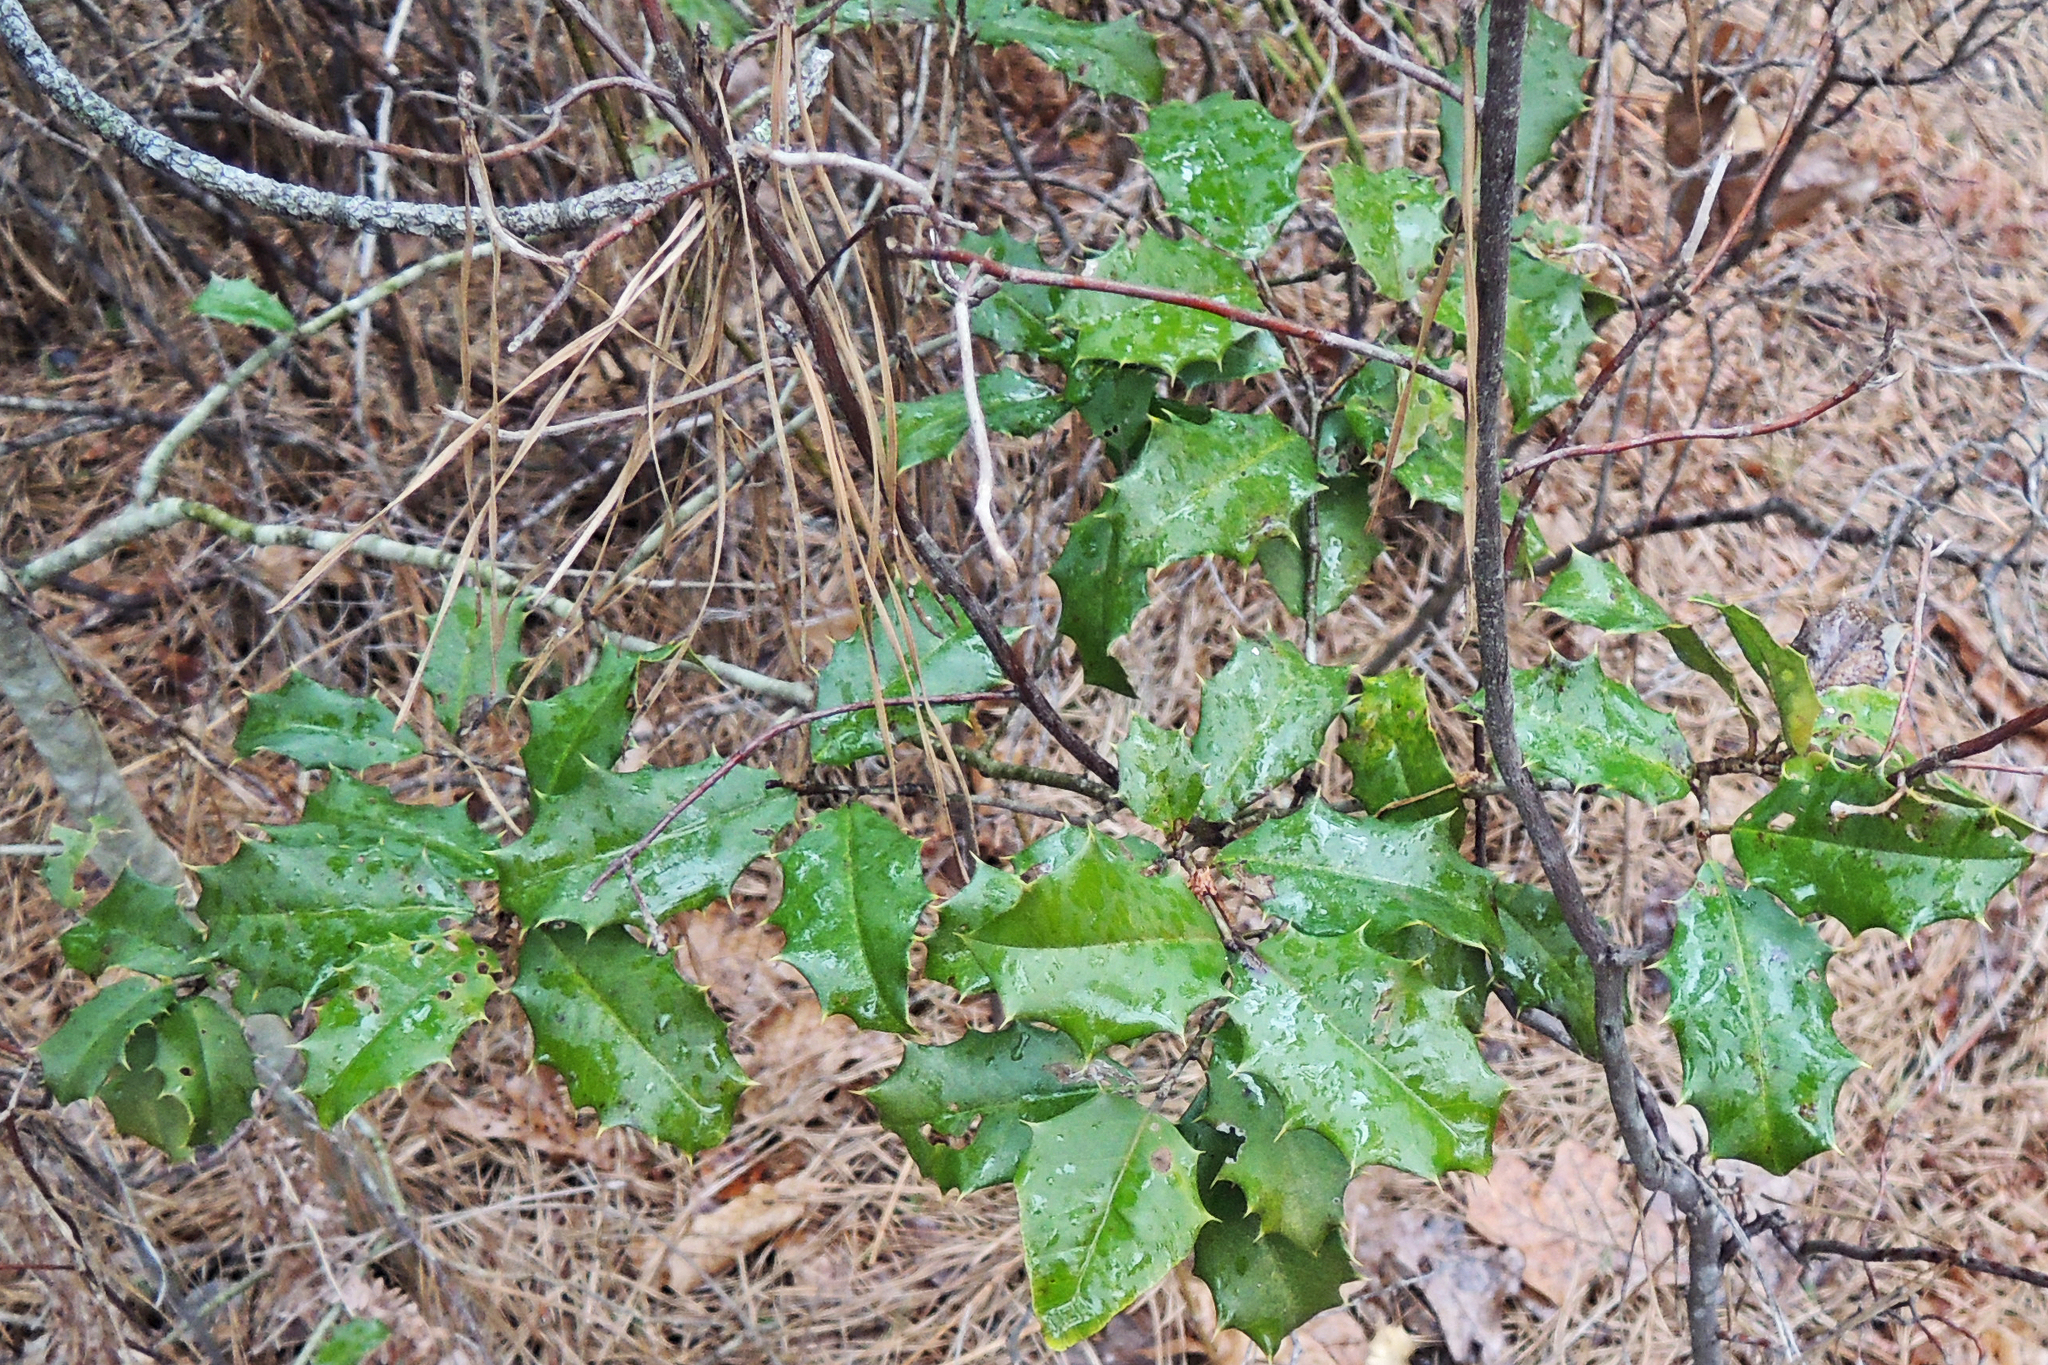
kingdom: Plantae
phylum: Tracheophyta
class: Magnoliopsida
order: Aquifoliales
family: Aquifoliaceae
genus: Ilex
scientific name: Ilex opaca
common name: American holly
